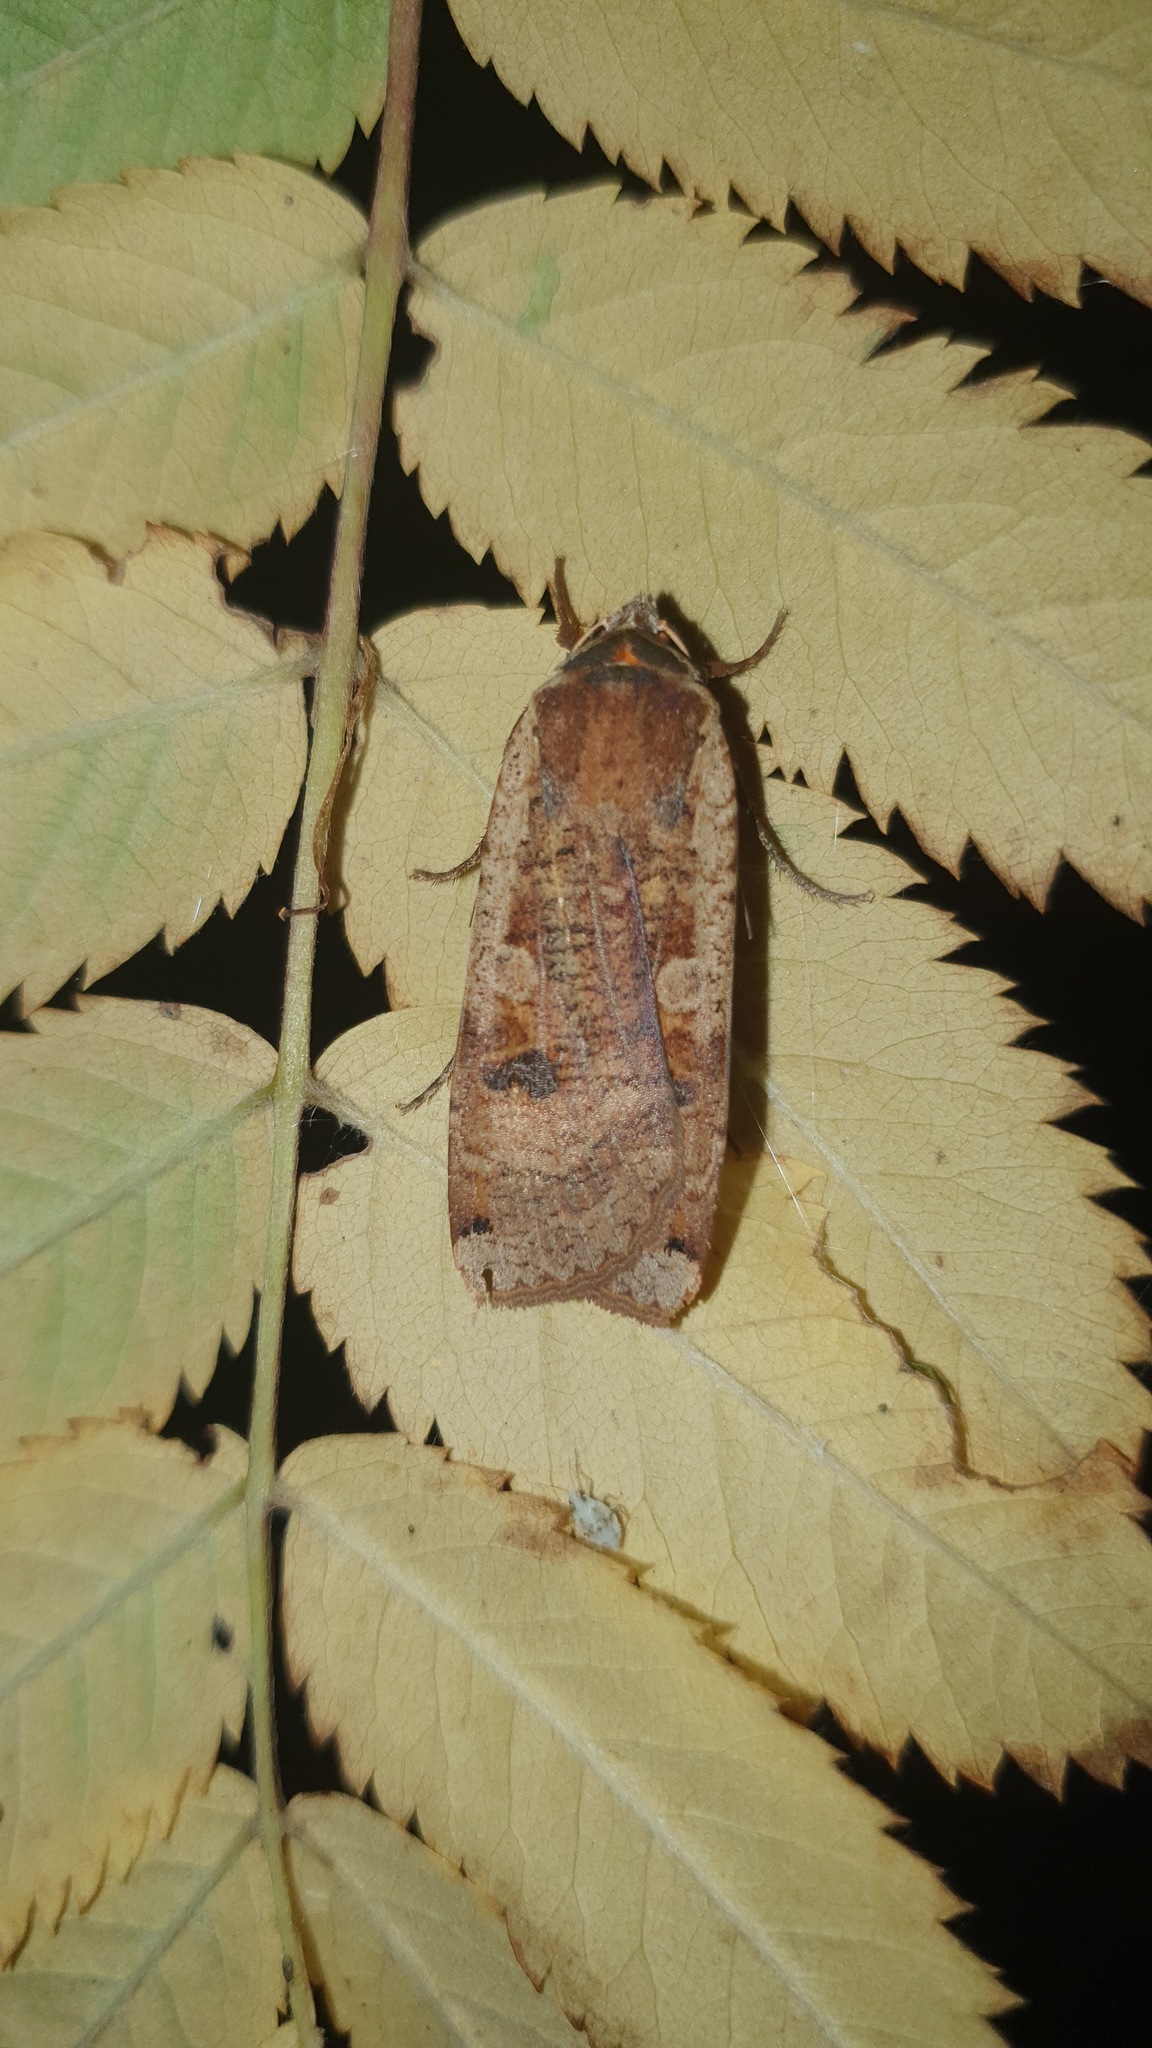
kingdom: Animalia
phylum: Arthropoda
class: Insecta
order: Lepidoptera
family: Noctuidae
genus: Noctua
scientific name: Noctua pronuba
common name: Large yellow underwing
